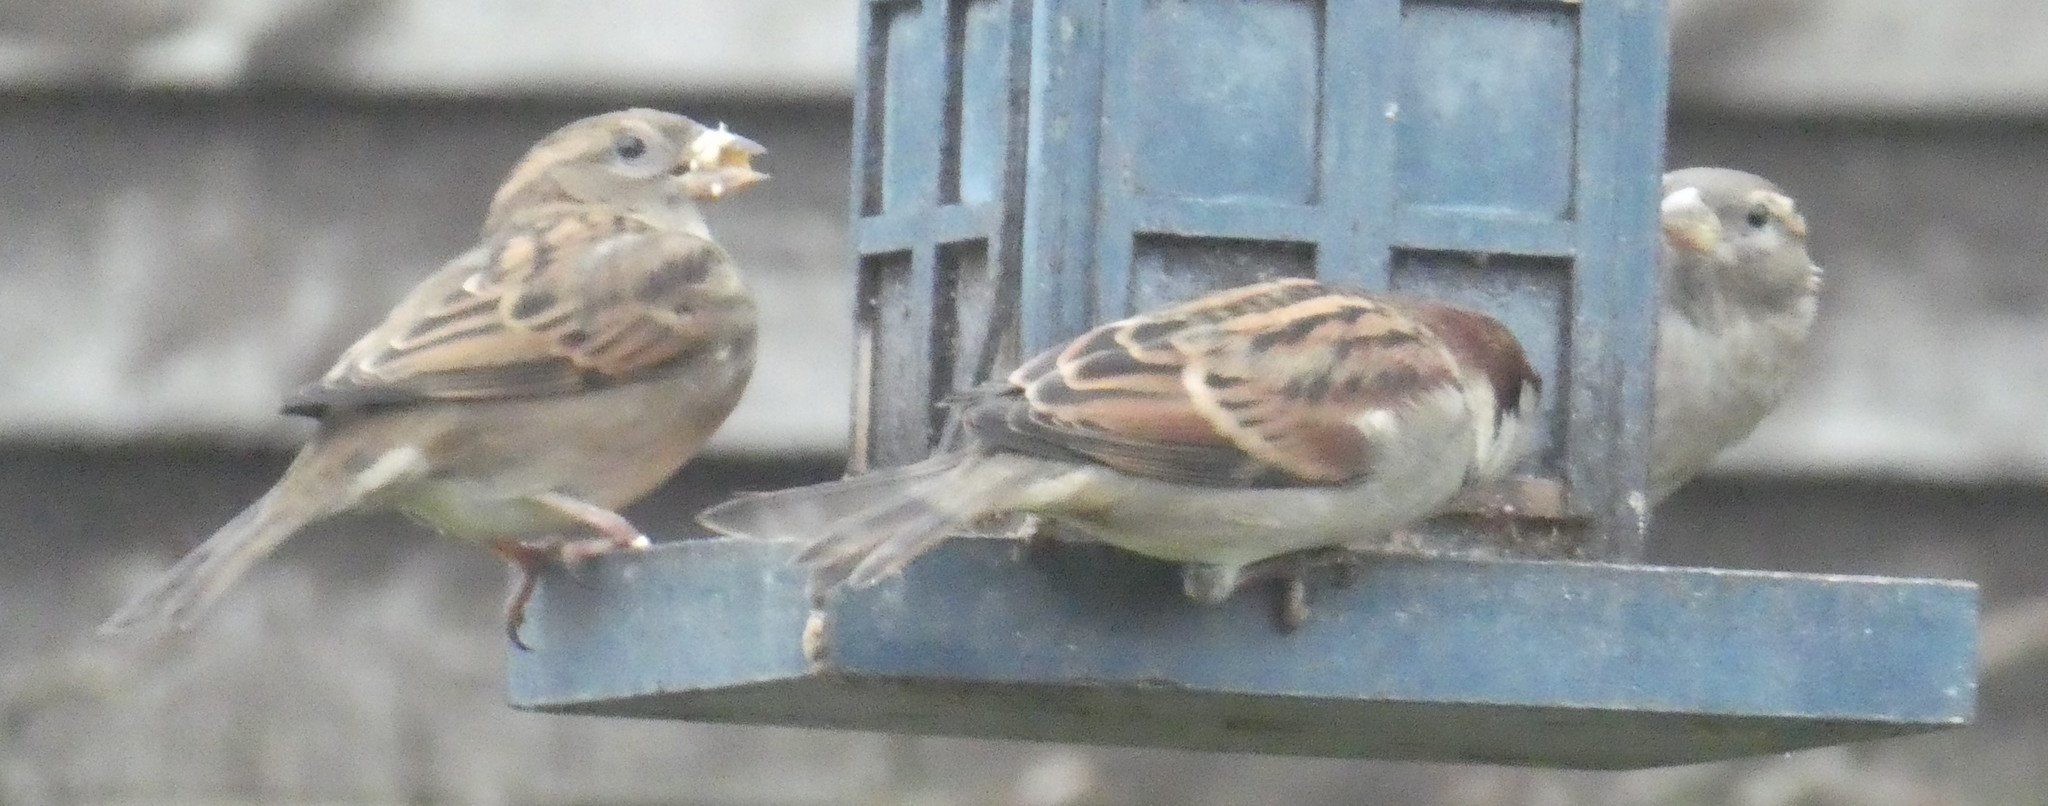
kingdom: Animalia
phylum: Chordata
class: Aves
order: Passeriformes
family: Passeridae
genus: Passer
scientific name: Passer domesticus
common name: House sparrow
